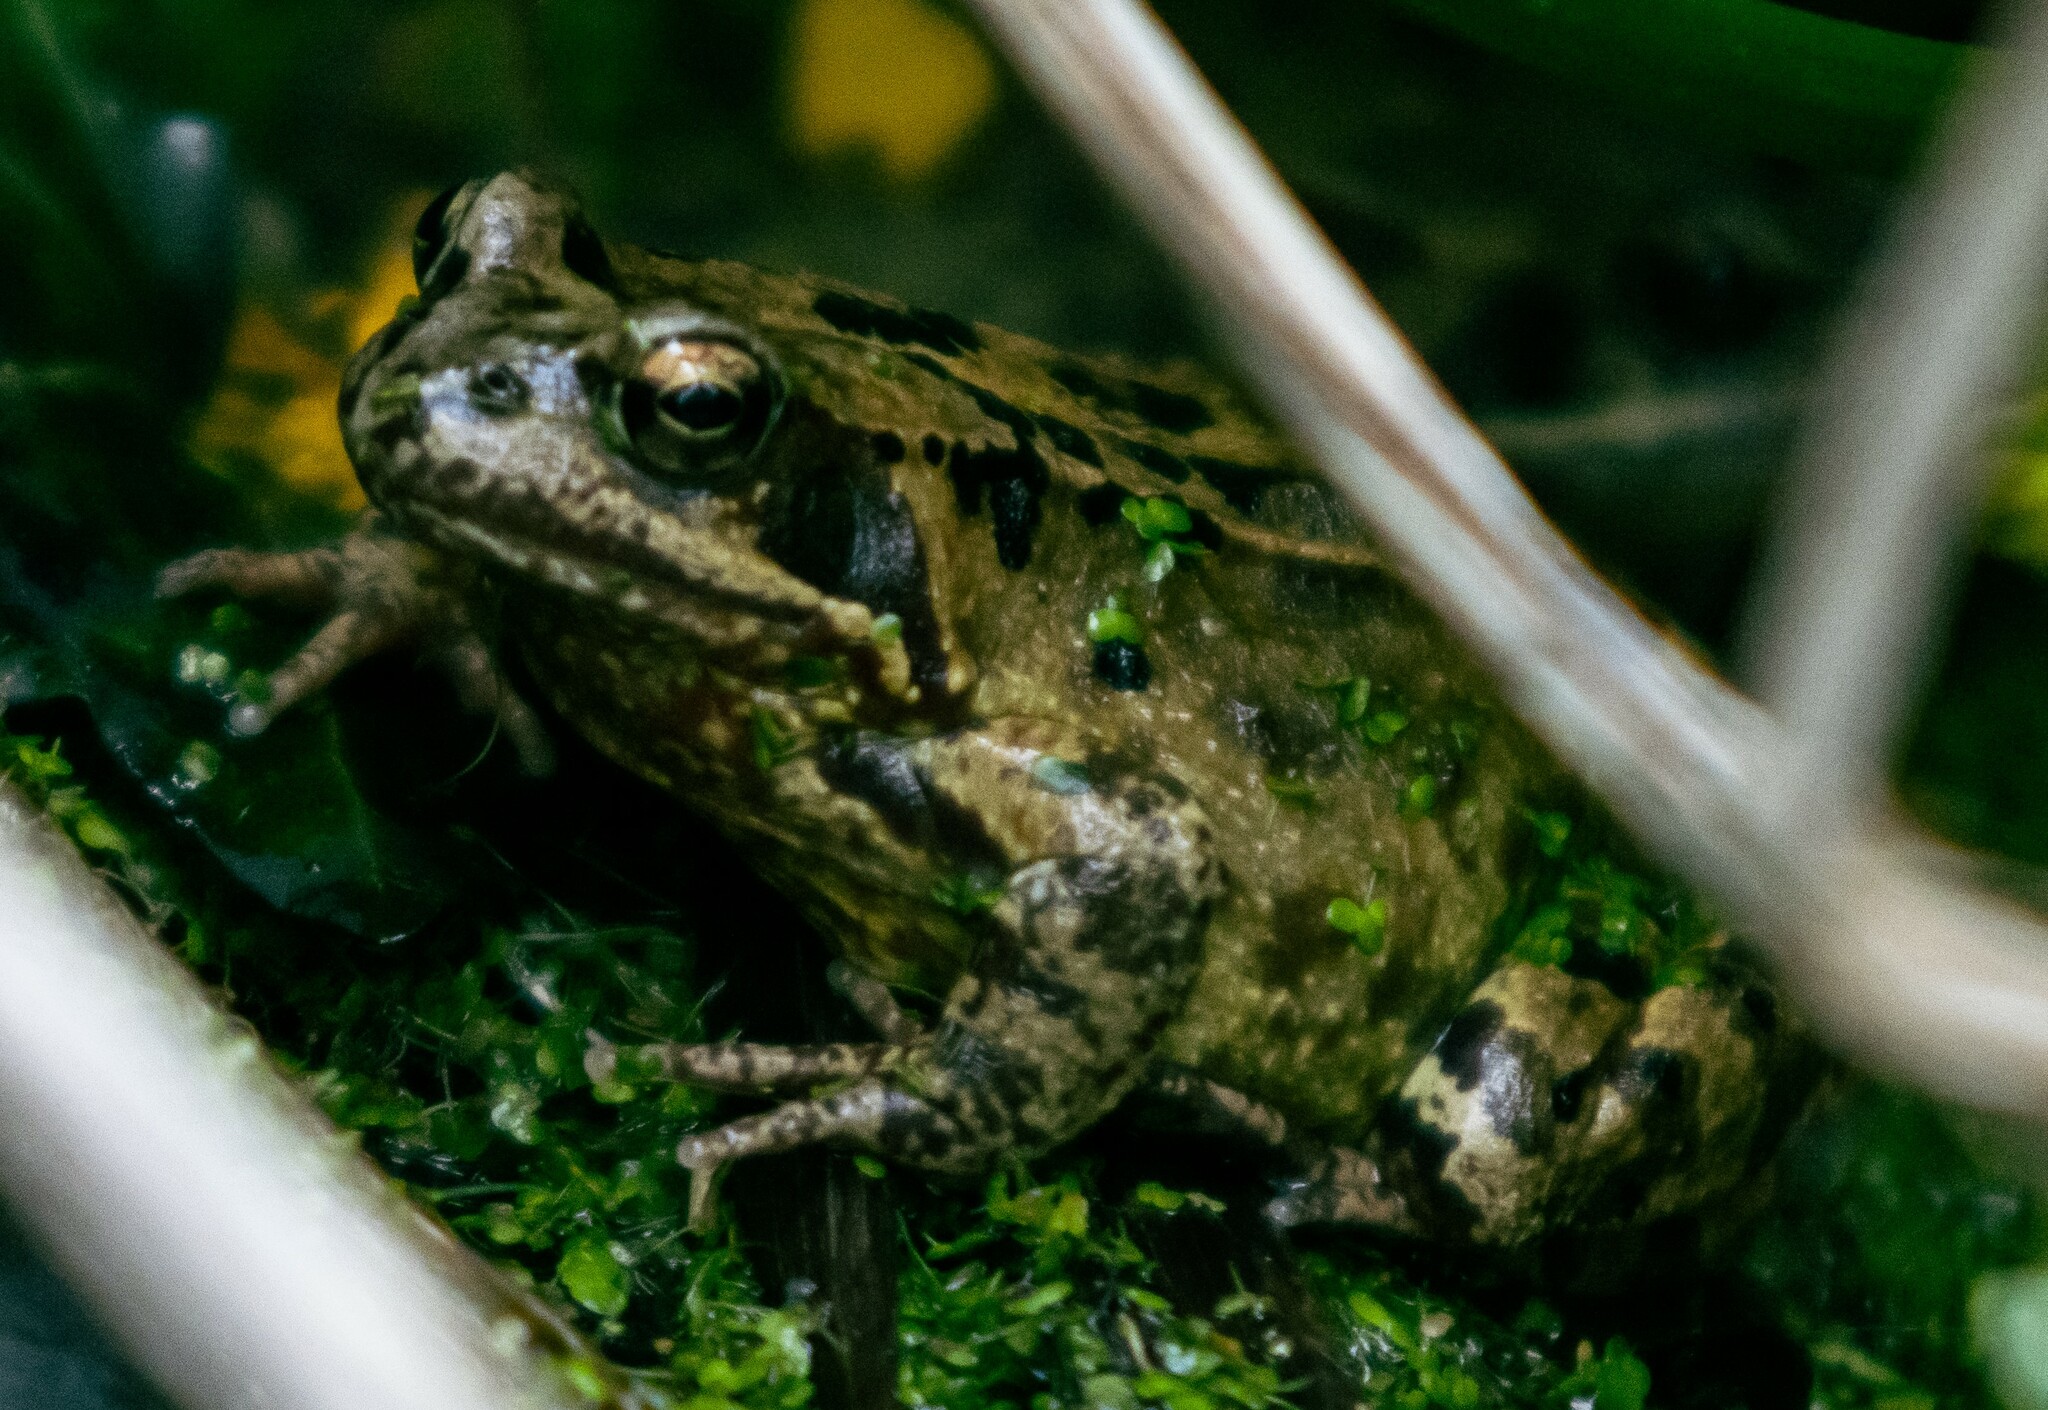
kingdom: Animalia
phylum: Chordata
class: Amphibia
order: Anura
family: Ranidae
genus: Rana
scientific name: Rana temporaria
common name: Common frog
